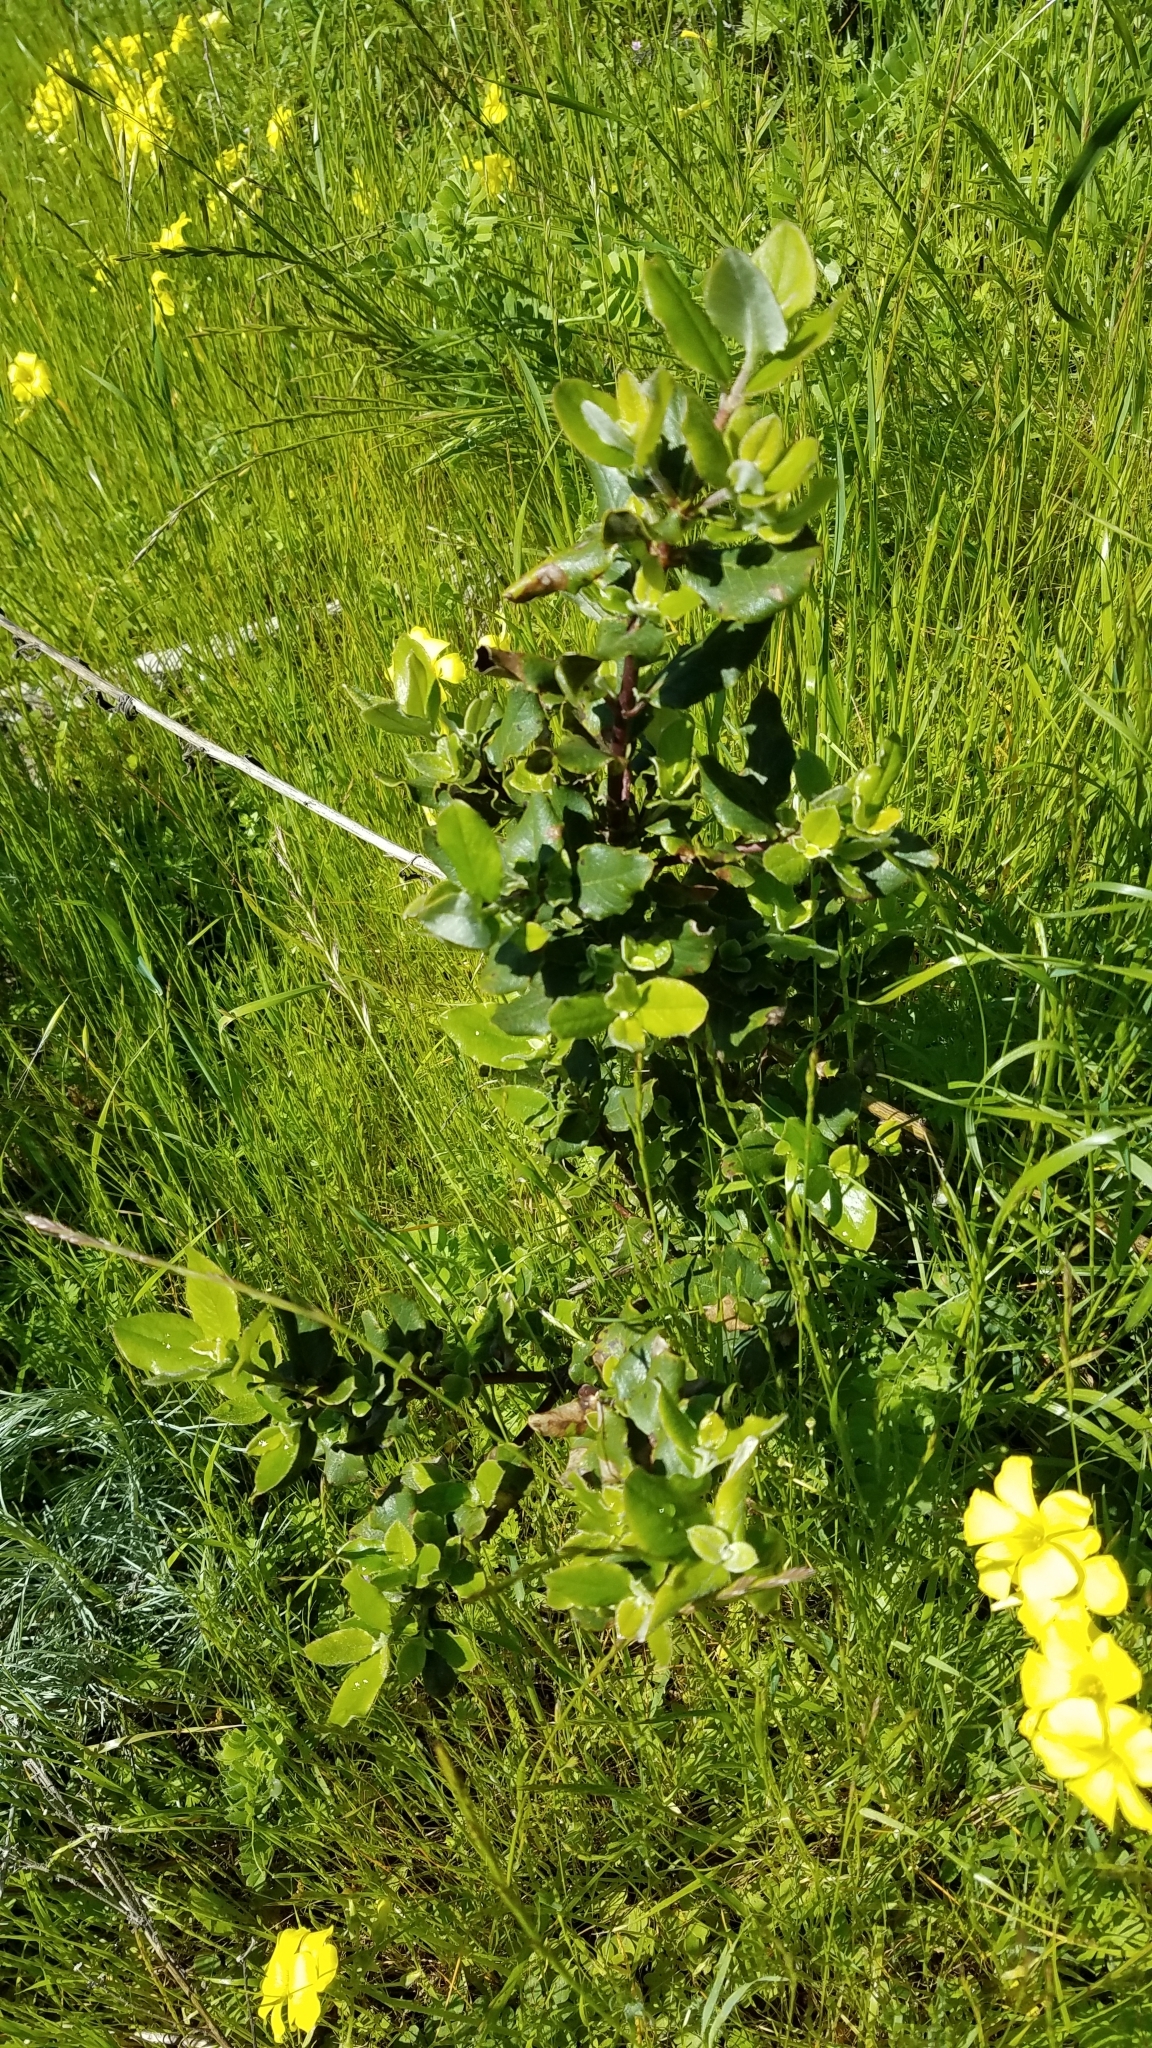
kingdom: Plantae
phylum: Tracheophyta
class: Magnoliopsida
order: Garryales
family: Garryaceae
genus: Garrya
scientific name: Garrya elliptica
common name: Silk-tassel
